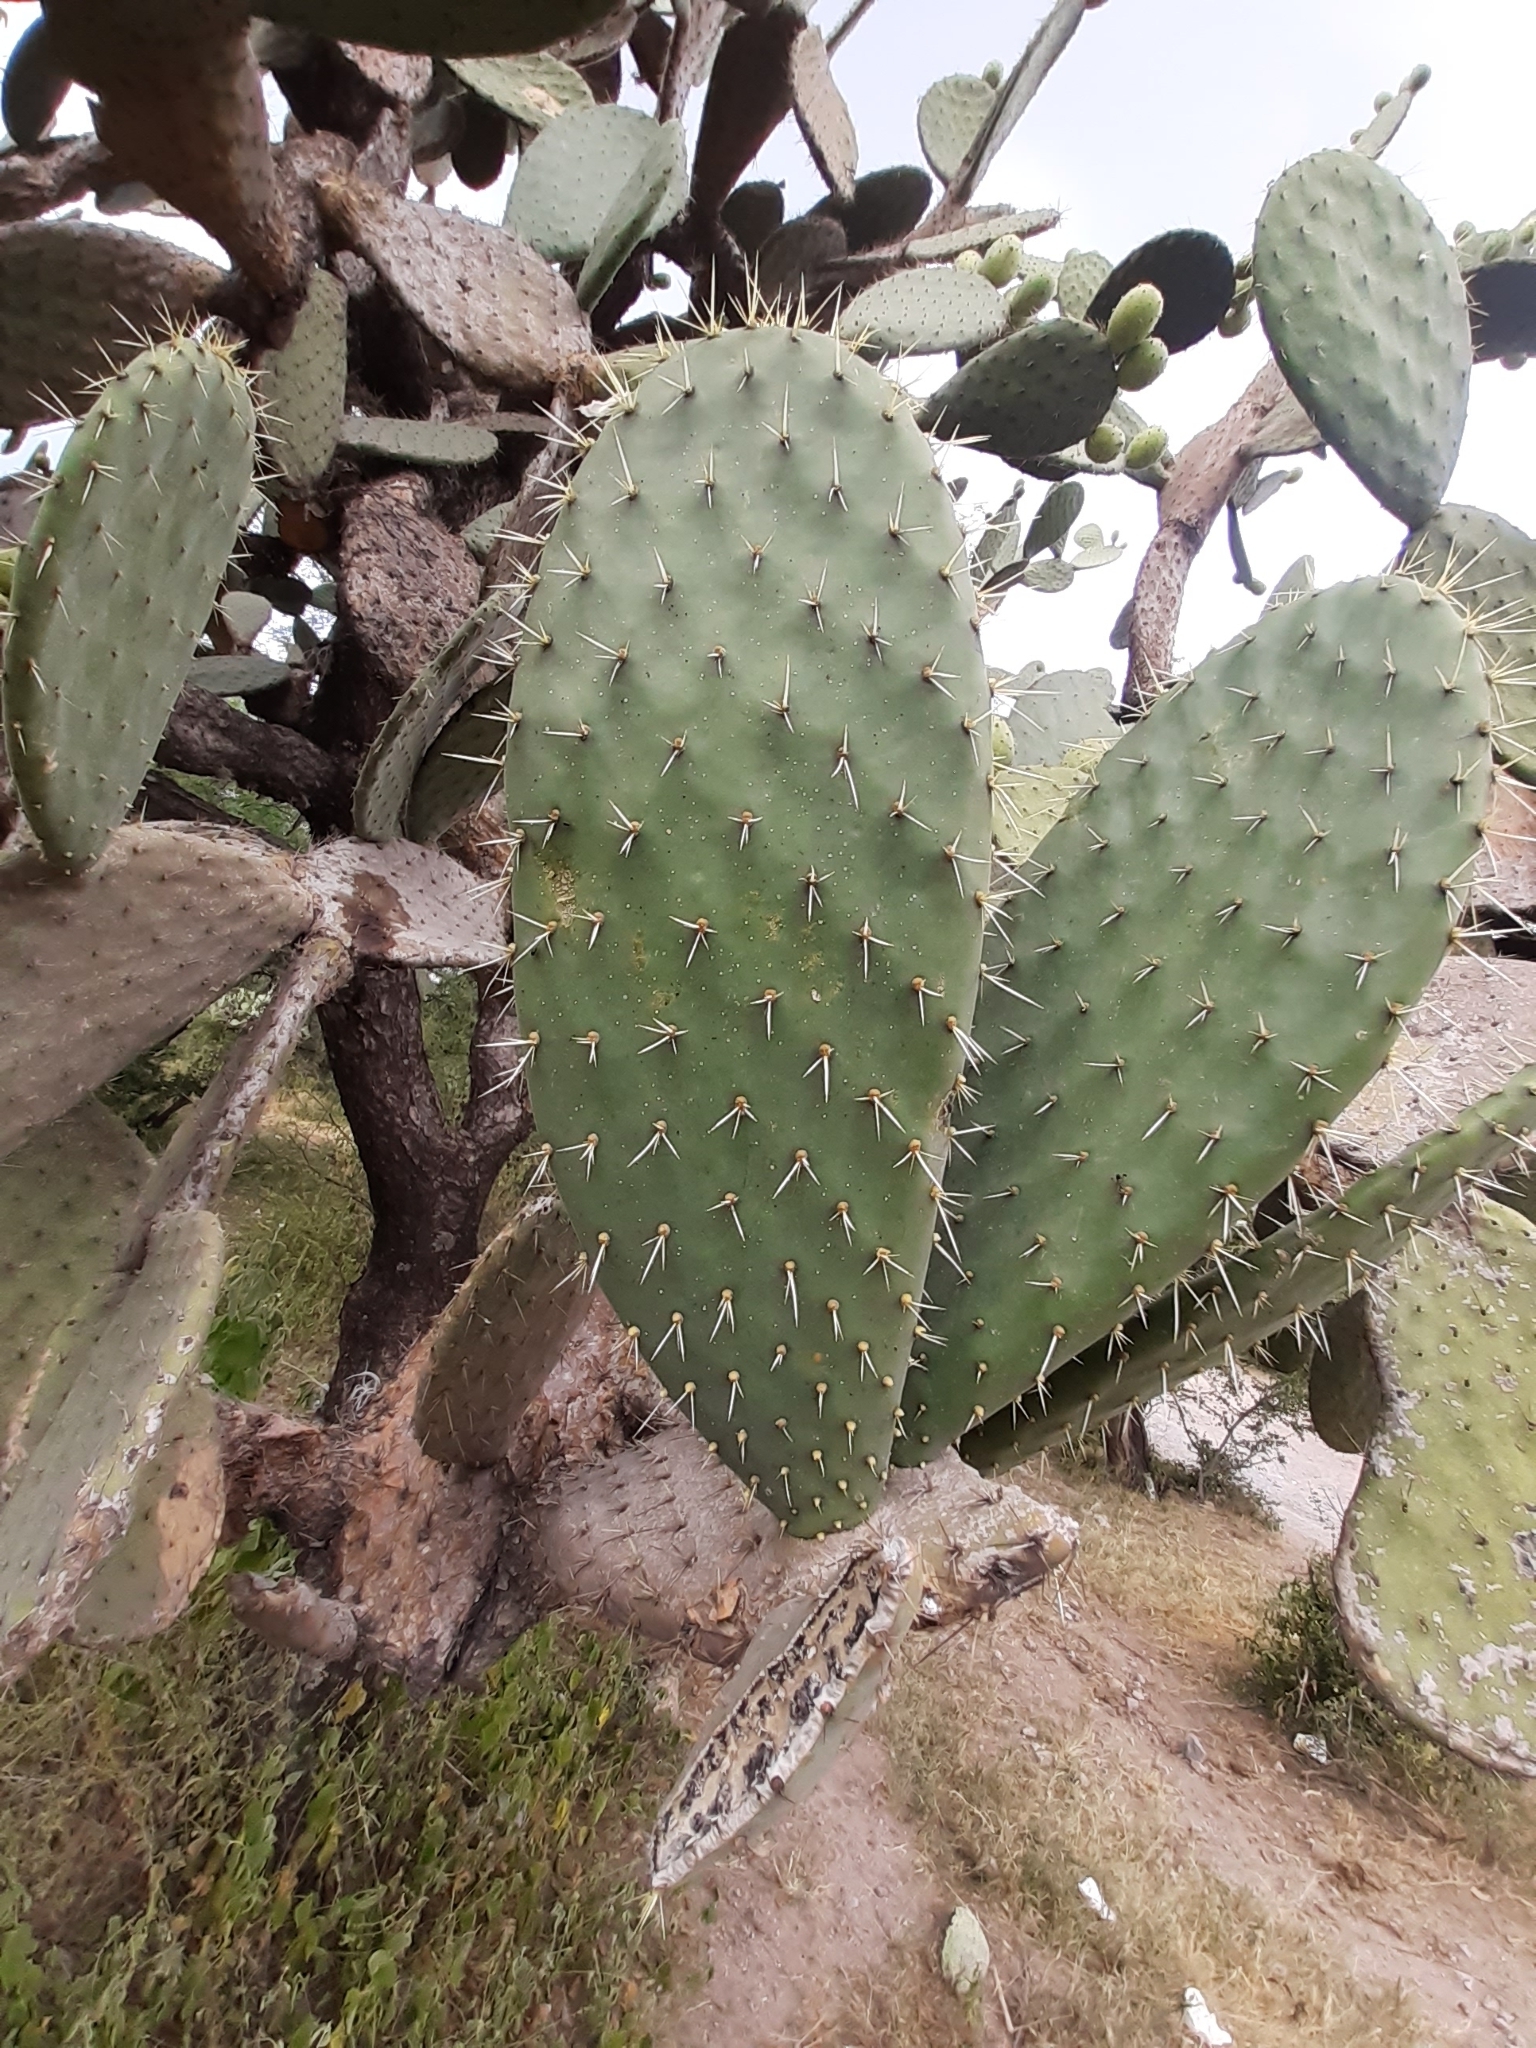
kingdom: Plantae
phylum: Tracheophyta
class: Magnoliopsida
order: Caryophyllales
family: Cactaceae
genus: Opuntia
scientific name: Opuntia streptacantha
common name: Gracemere-pear
